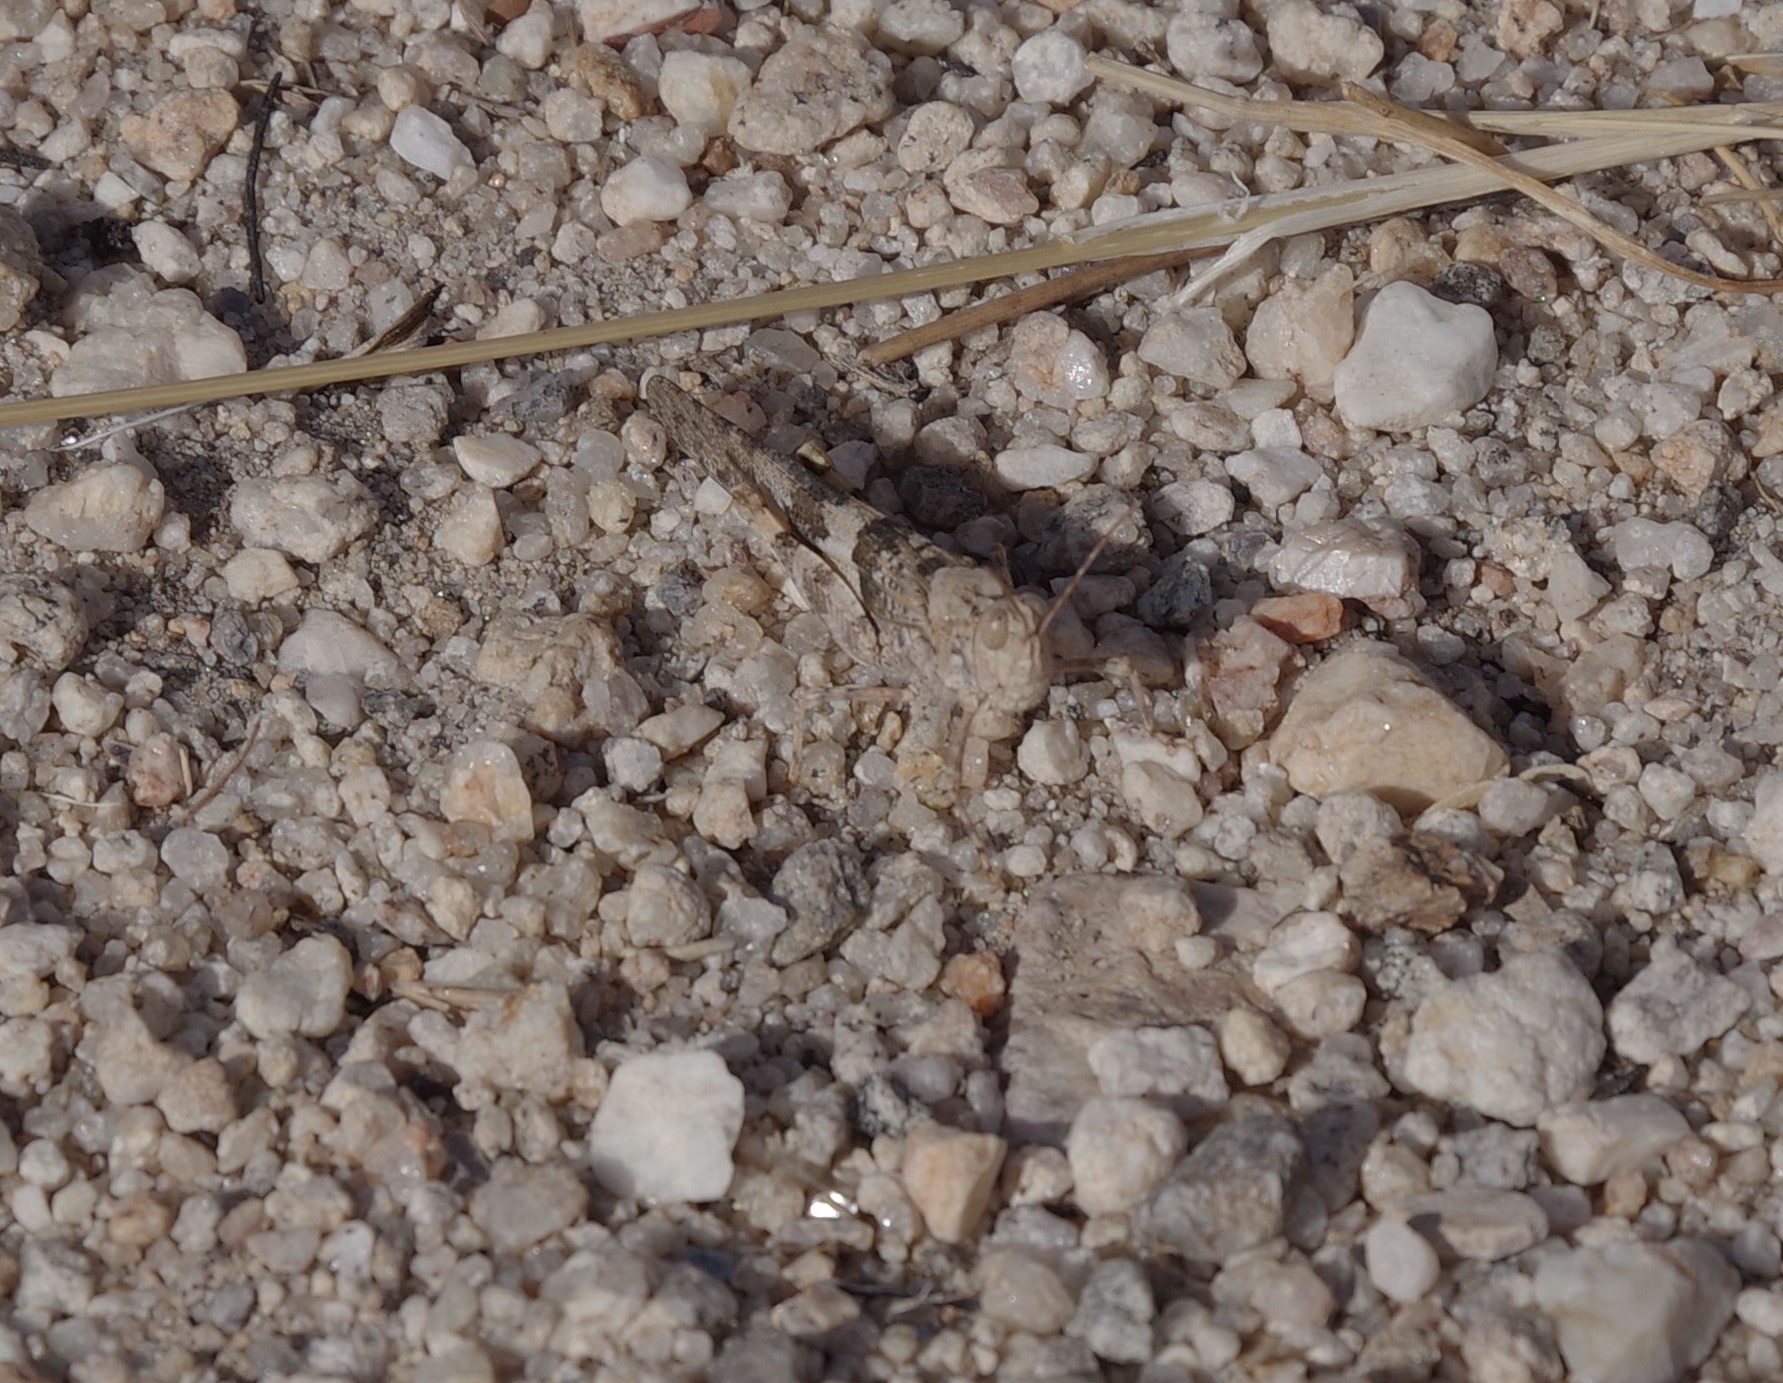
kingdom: Animalia
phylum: Arthropoda
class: Insecta
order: Orthoptera
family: Acrididae
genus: Trimerotropis
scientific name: Trimerotropis pallidipennis
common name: Pallid-winged grasshopper
